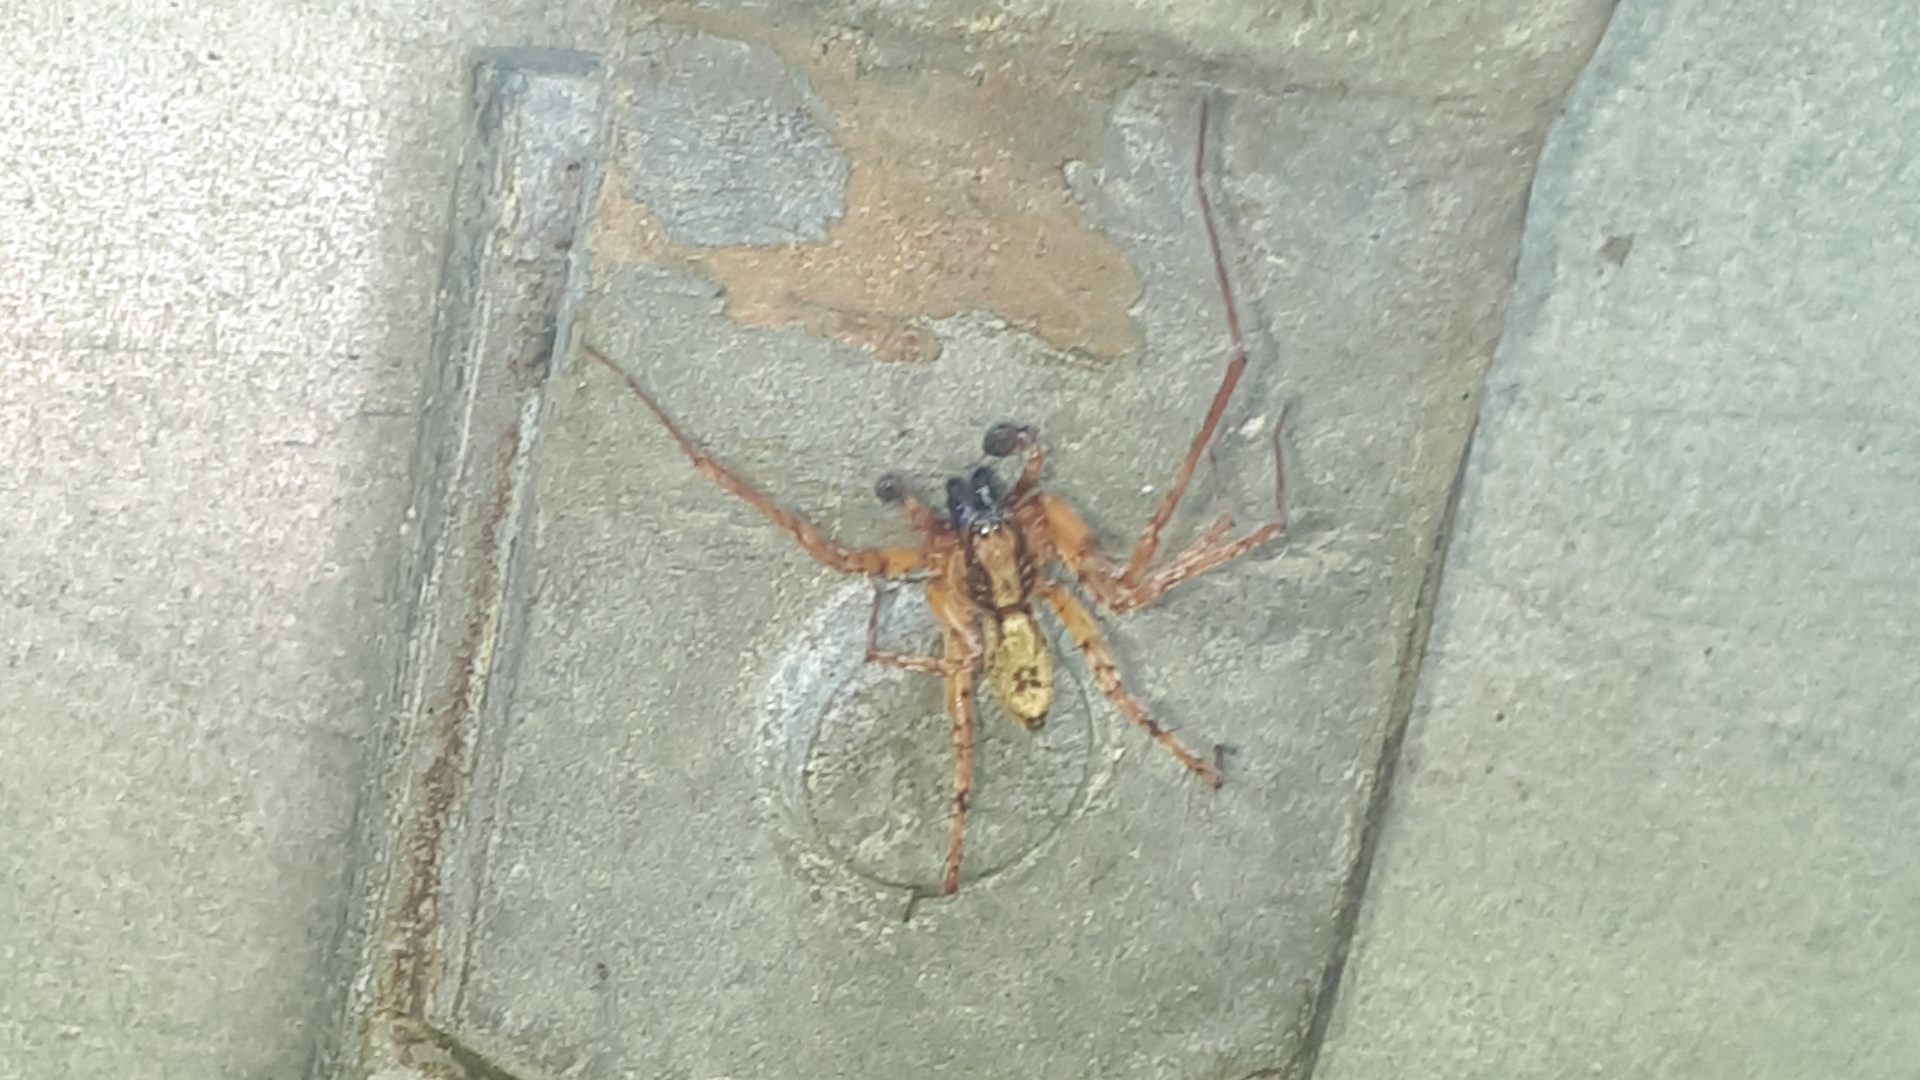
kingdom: Animalia
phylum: Arthropoda
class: Arachnida
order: Araneae
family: Anyphaenidae
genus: Anyphaena
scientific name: Anyphaena accentuata
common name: Buzzing spider
